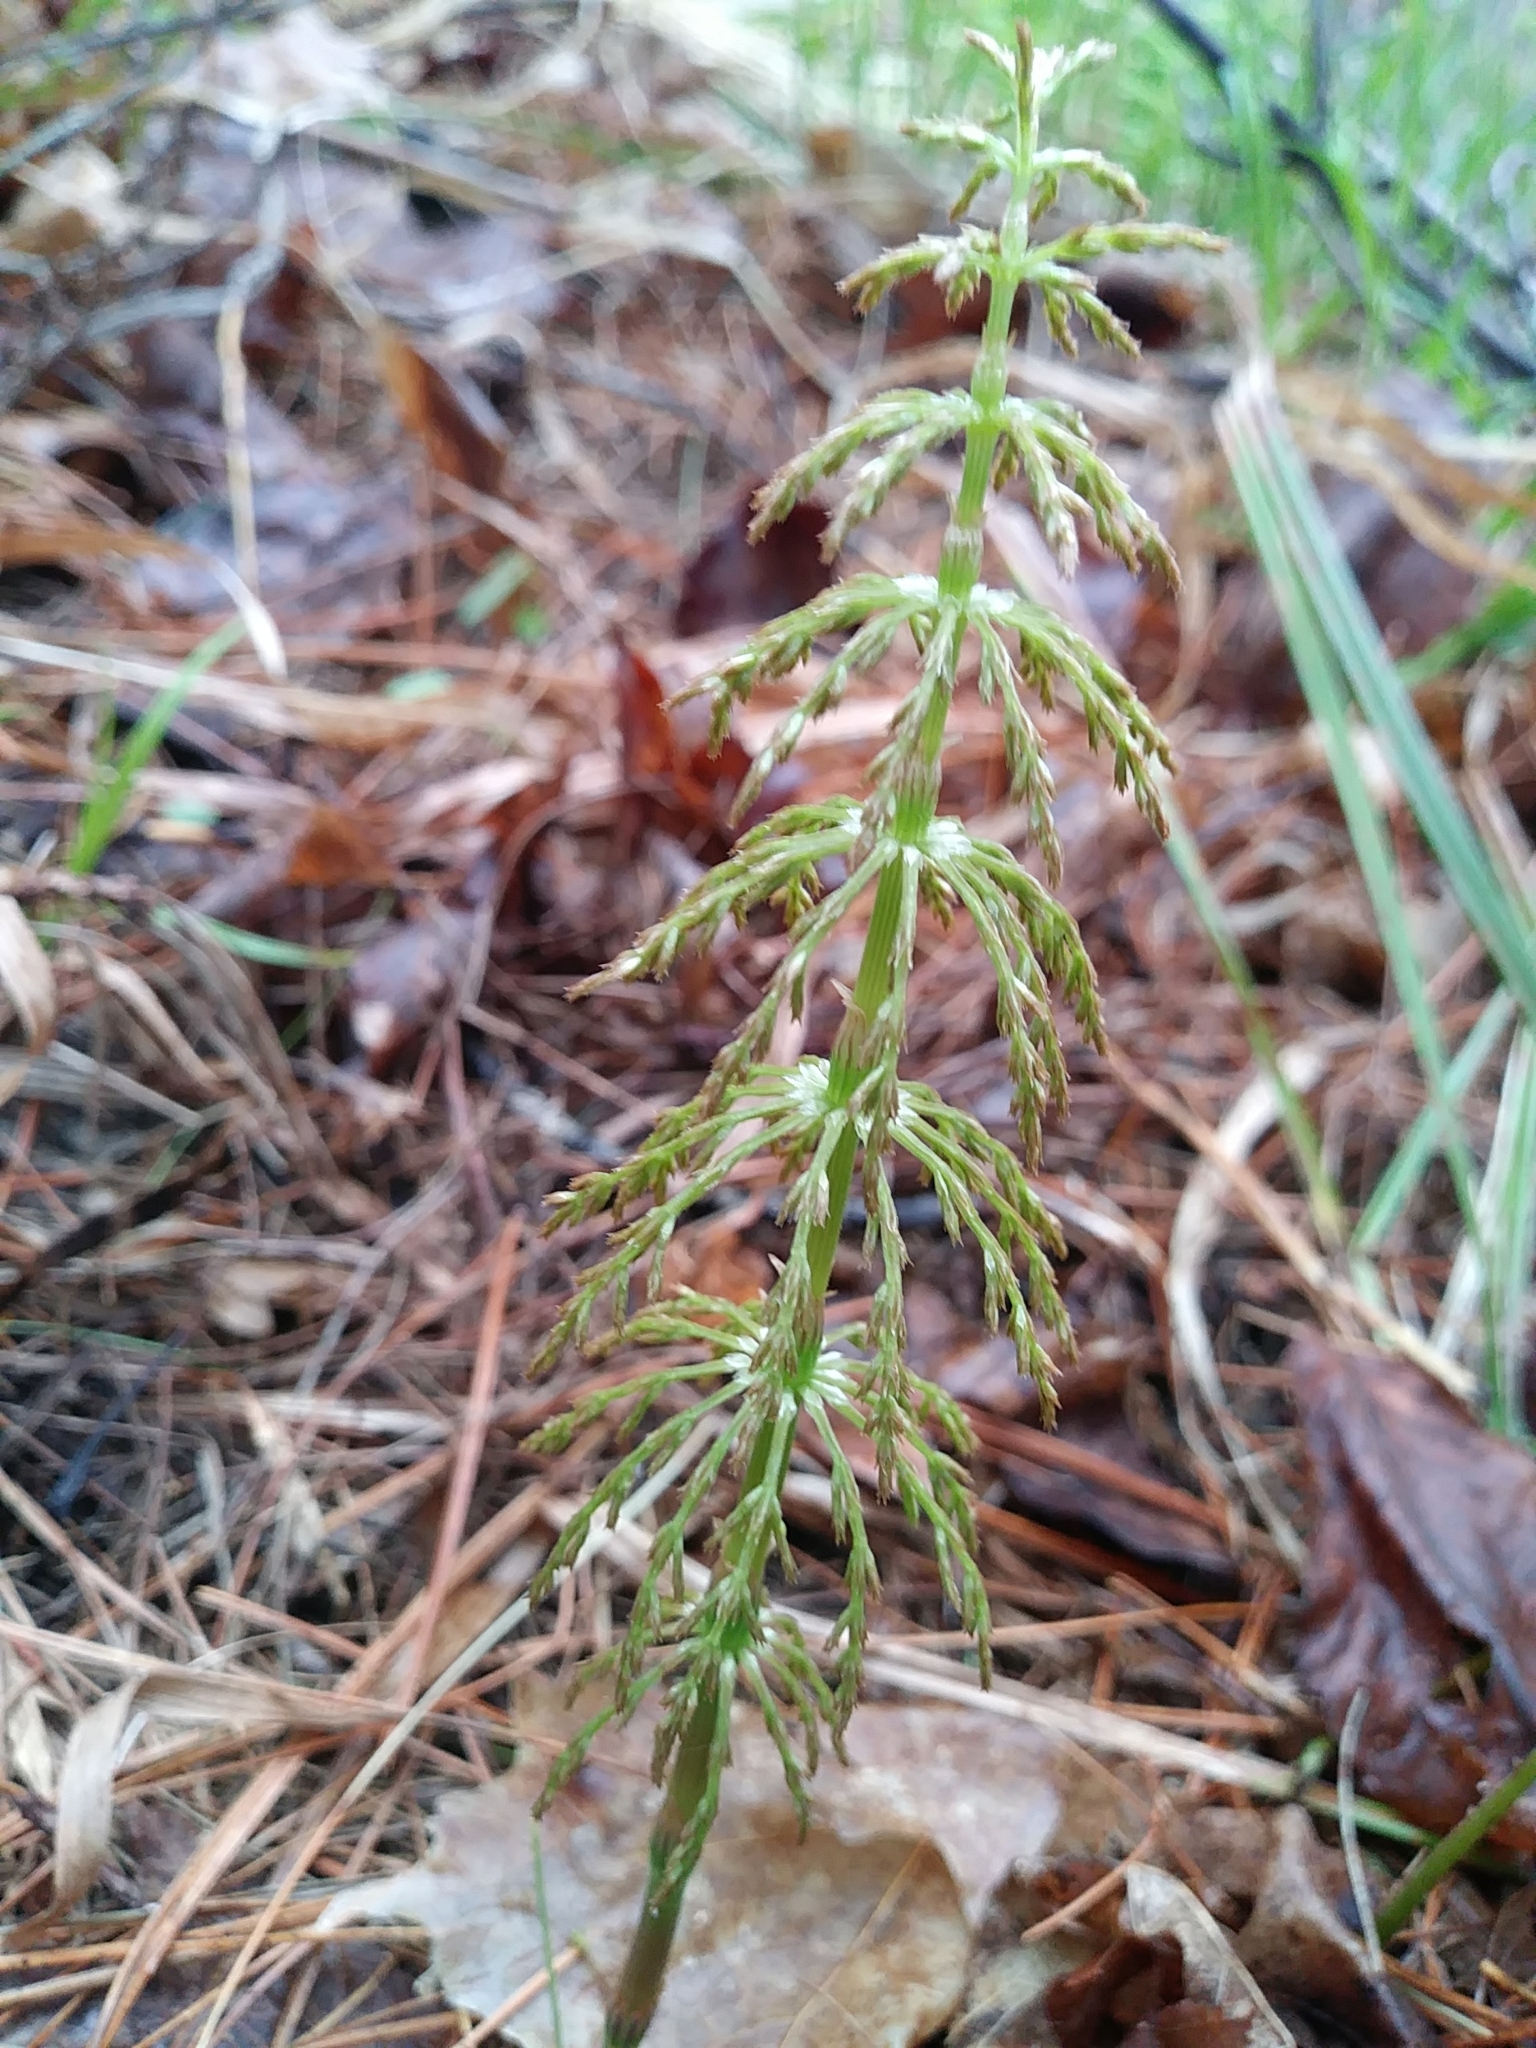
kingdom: Plantae
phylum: Tracheophyta
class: Polypodiopsida
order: Equisetales
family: Equisetaceae
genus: Equisetum
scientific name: Equisetum sylvaticum
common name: Wood horsetail
